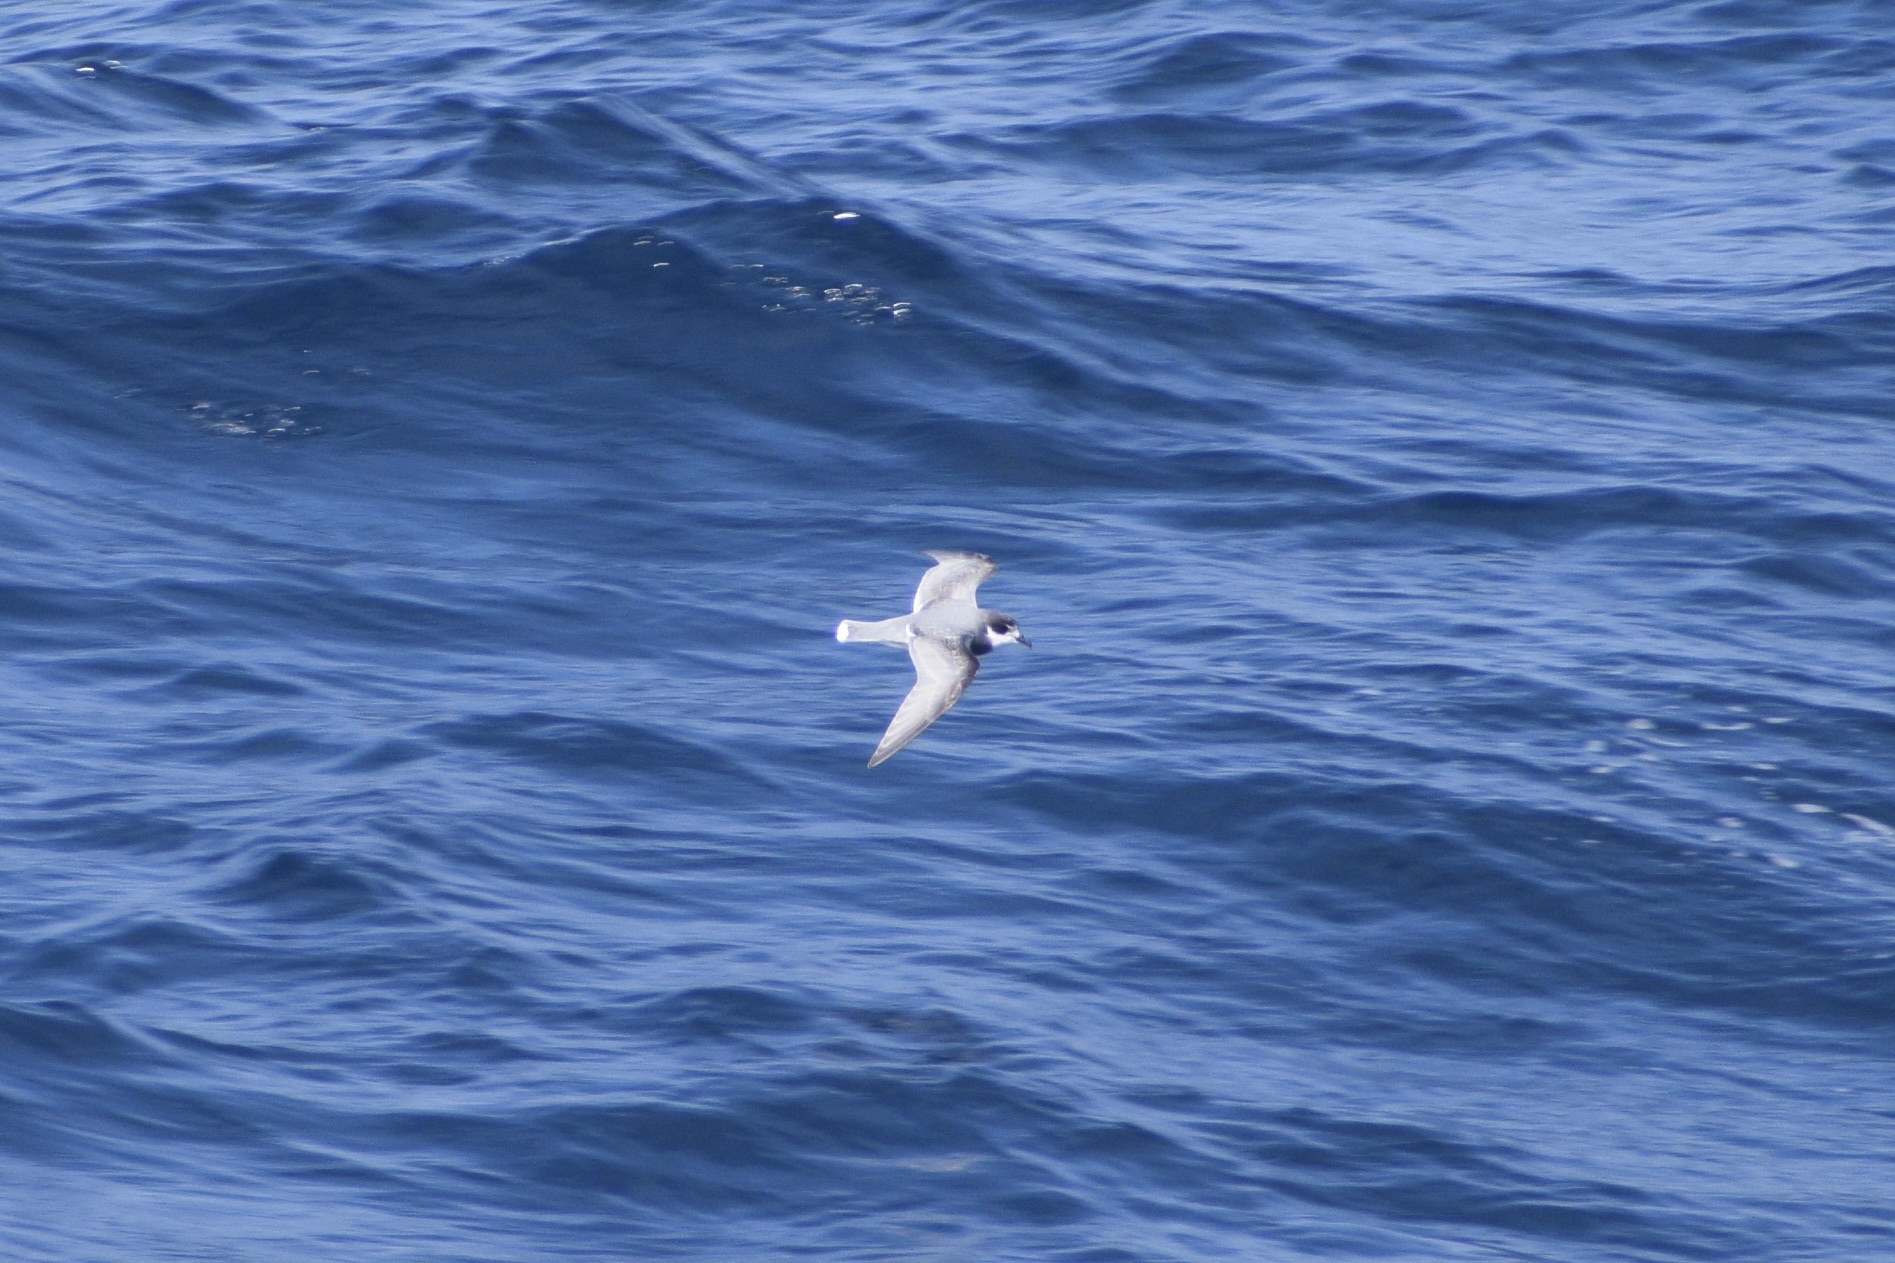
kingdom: Animalia
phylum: Chordata
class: Aves
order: Procellariiformes
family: Procellariidae
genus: Halobaena
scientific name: Halobaena caerulea
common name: Blue petrel
